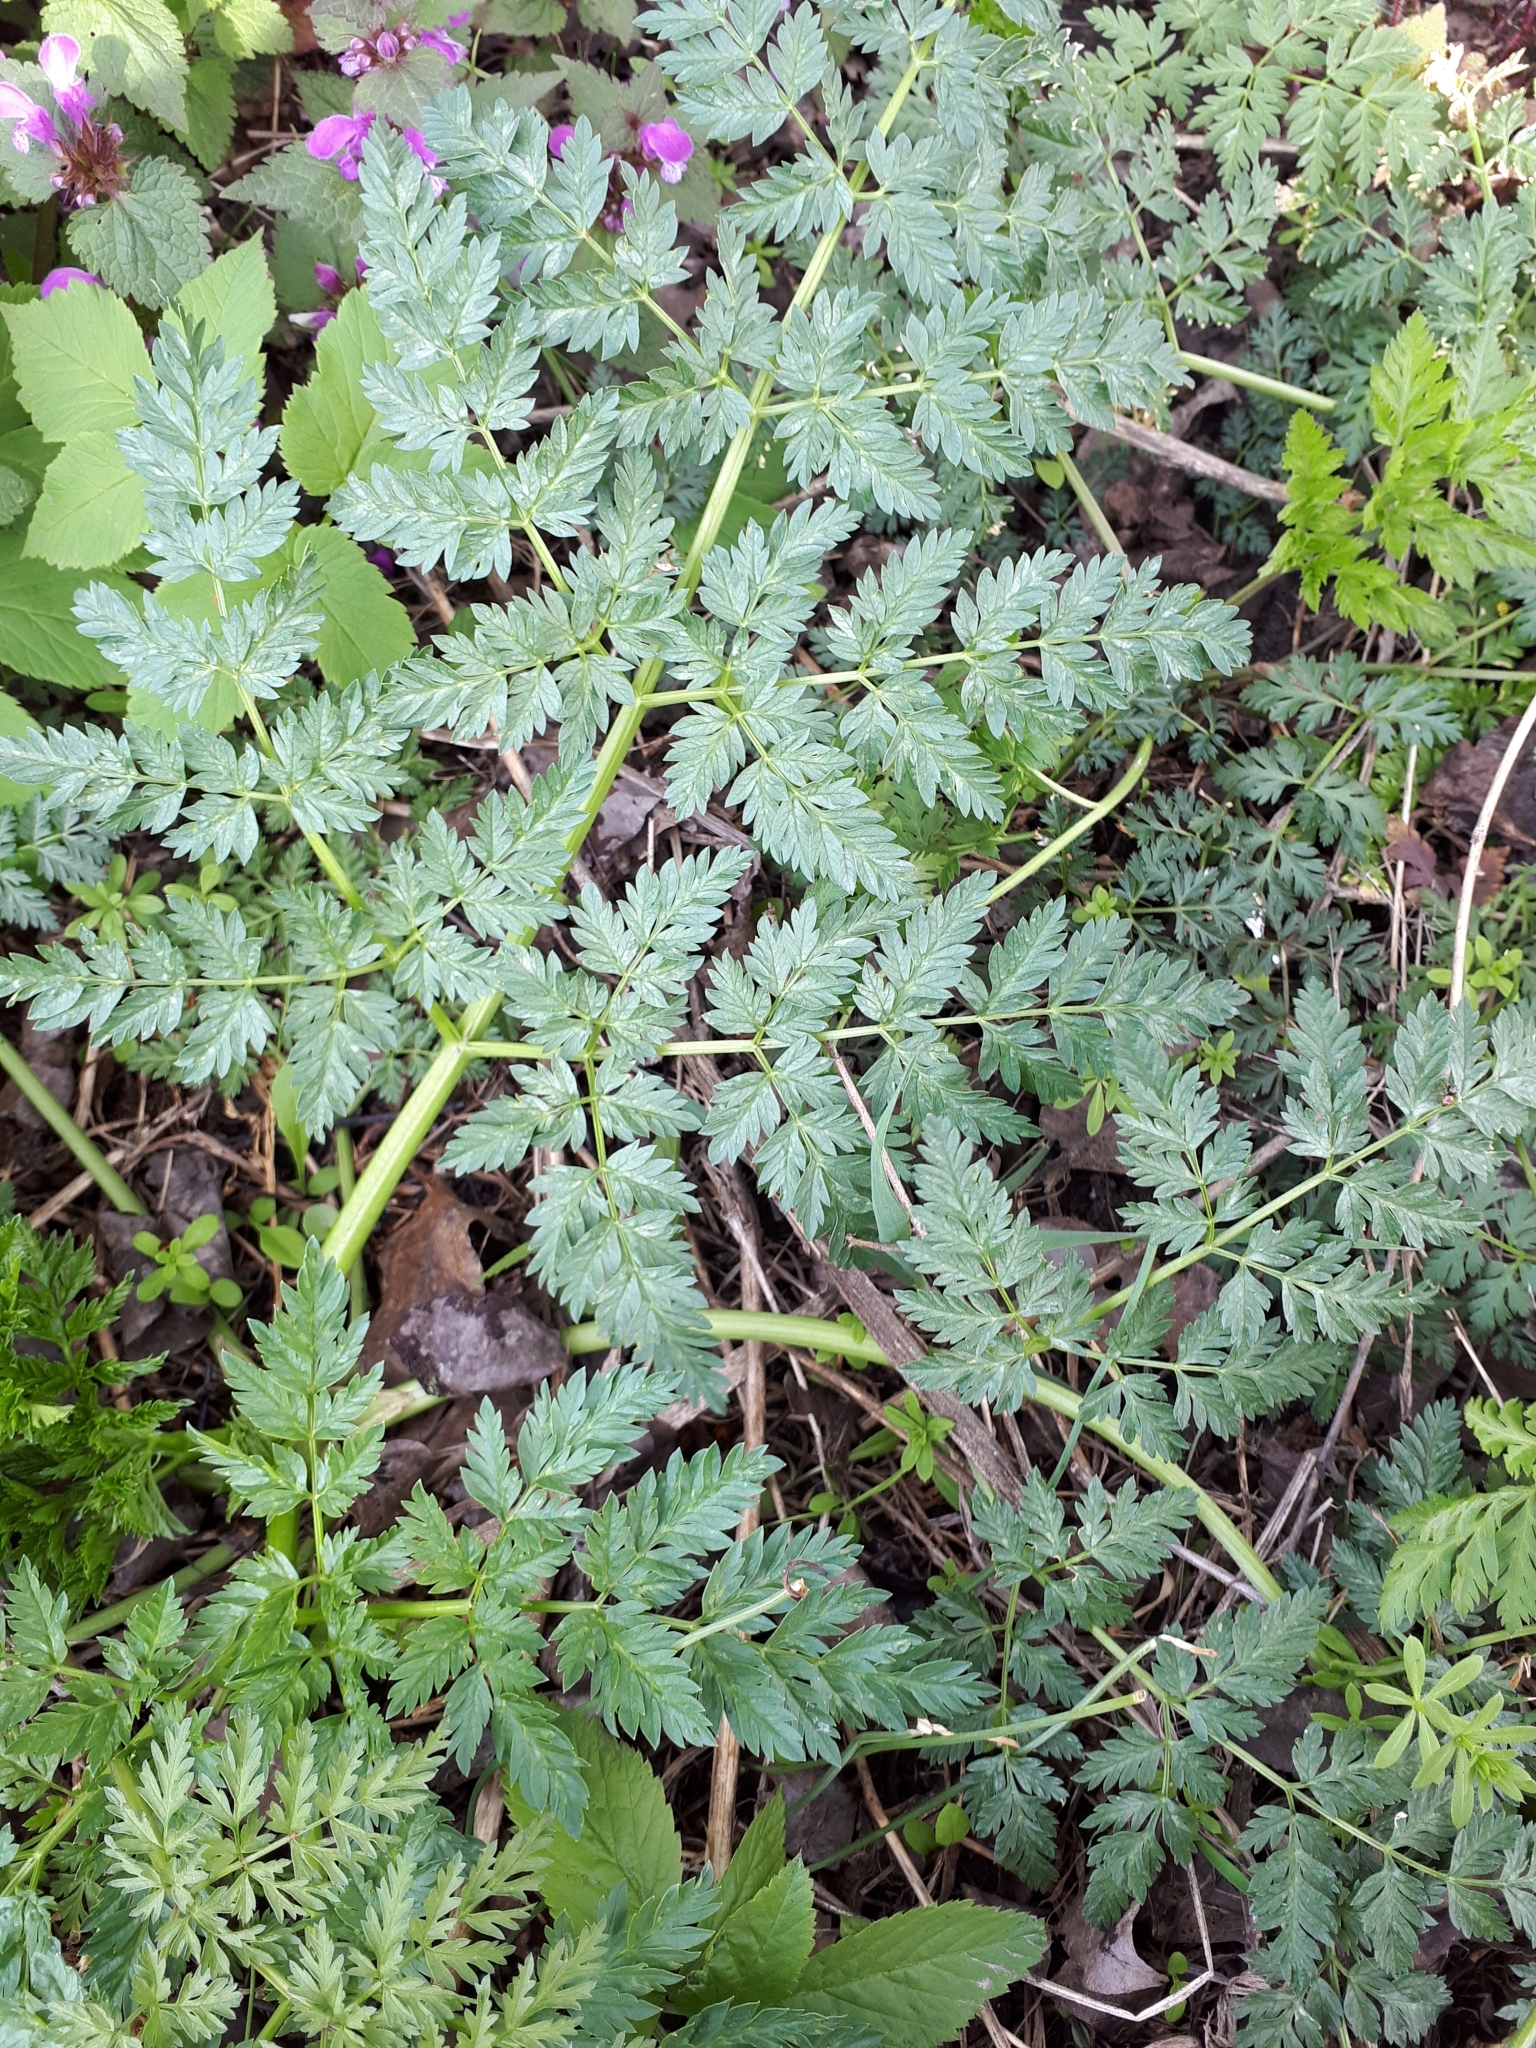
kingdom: Plantae
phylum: Tracheophyta
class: Magnoliopsida
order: Apiales
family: Apiaceae
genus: Conium
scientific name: Conium maculatum
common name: Hemlock
